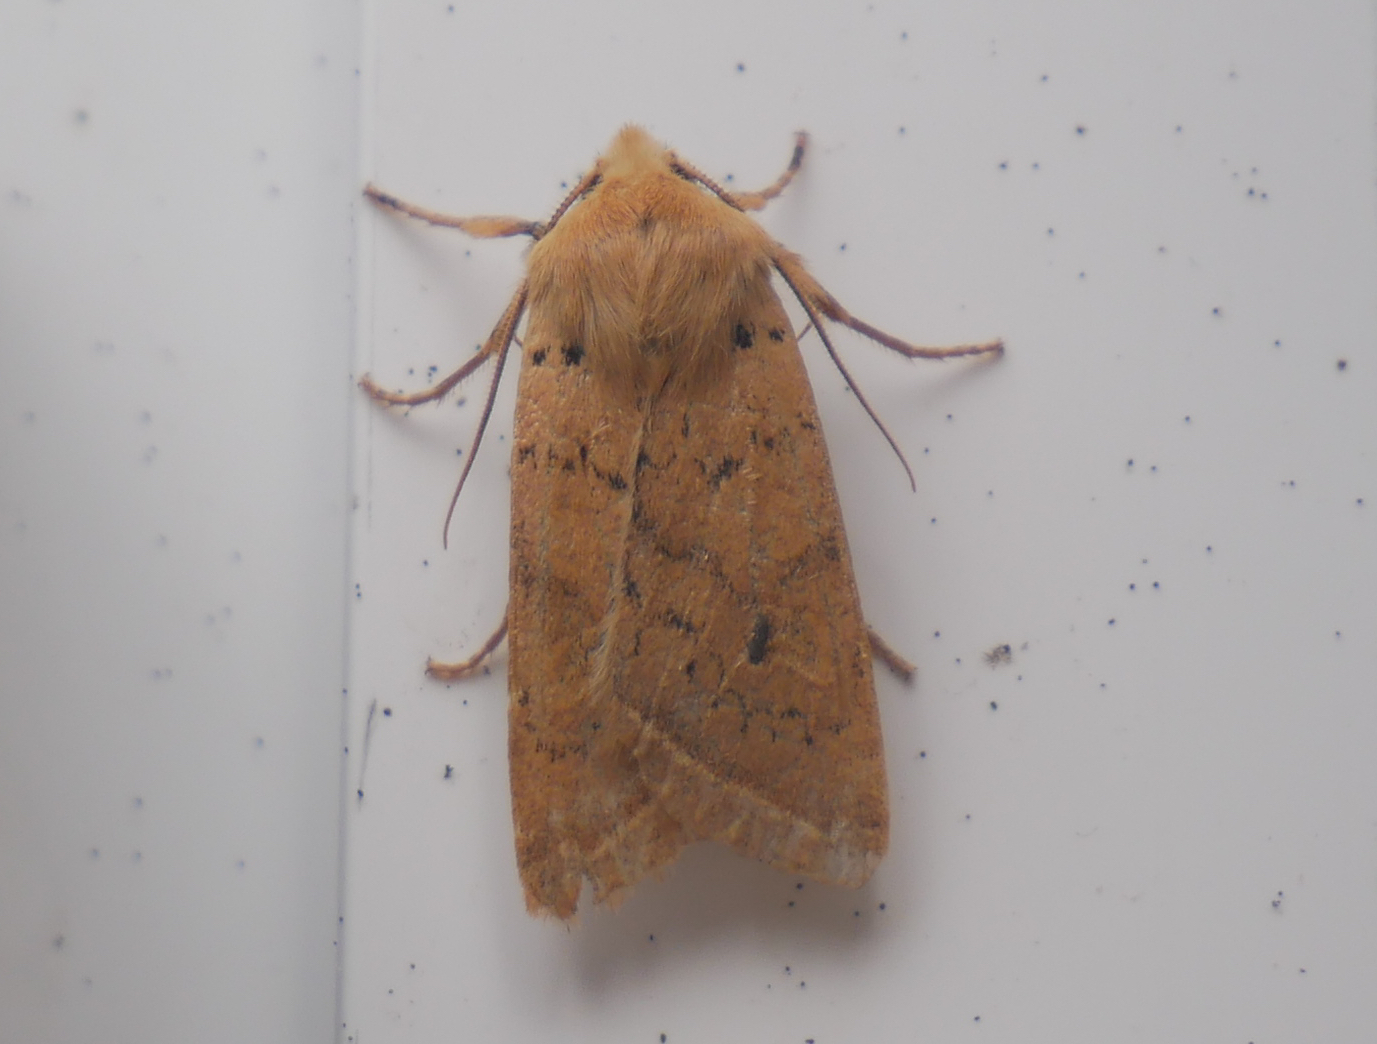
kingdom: Animalia
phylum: Arthropoda
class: Insecta
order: Lepidoptera
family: Noctuidae
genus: Agrochola
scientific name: Agrochola macilenta
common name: Yellow-line quaker
